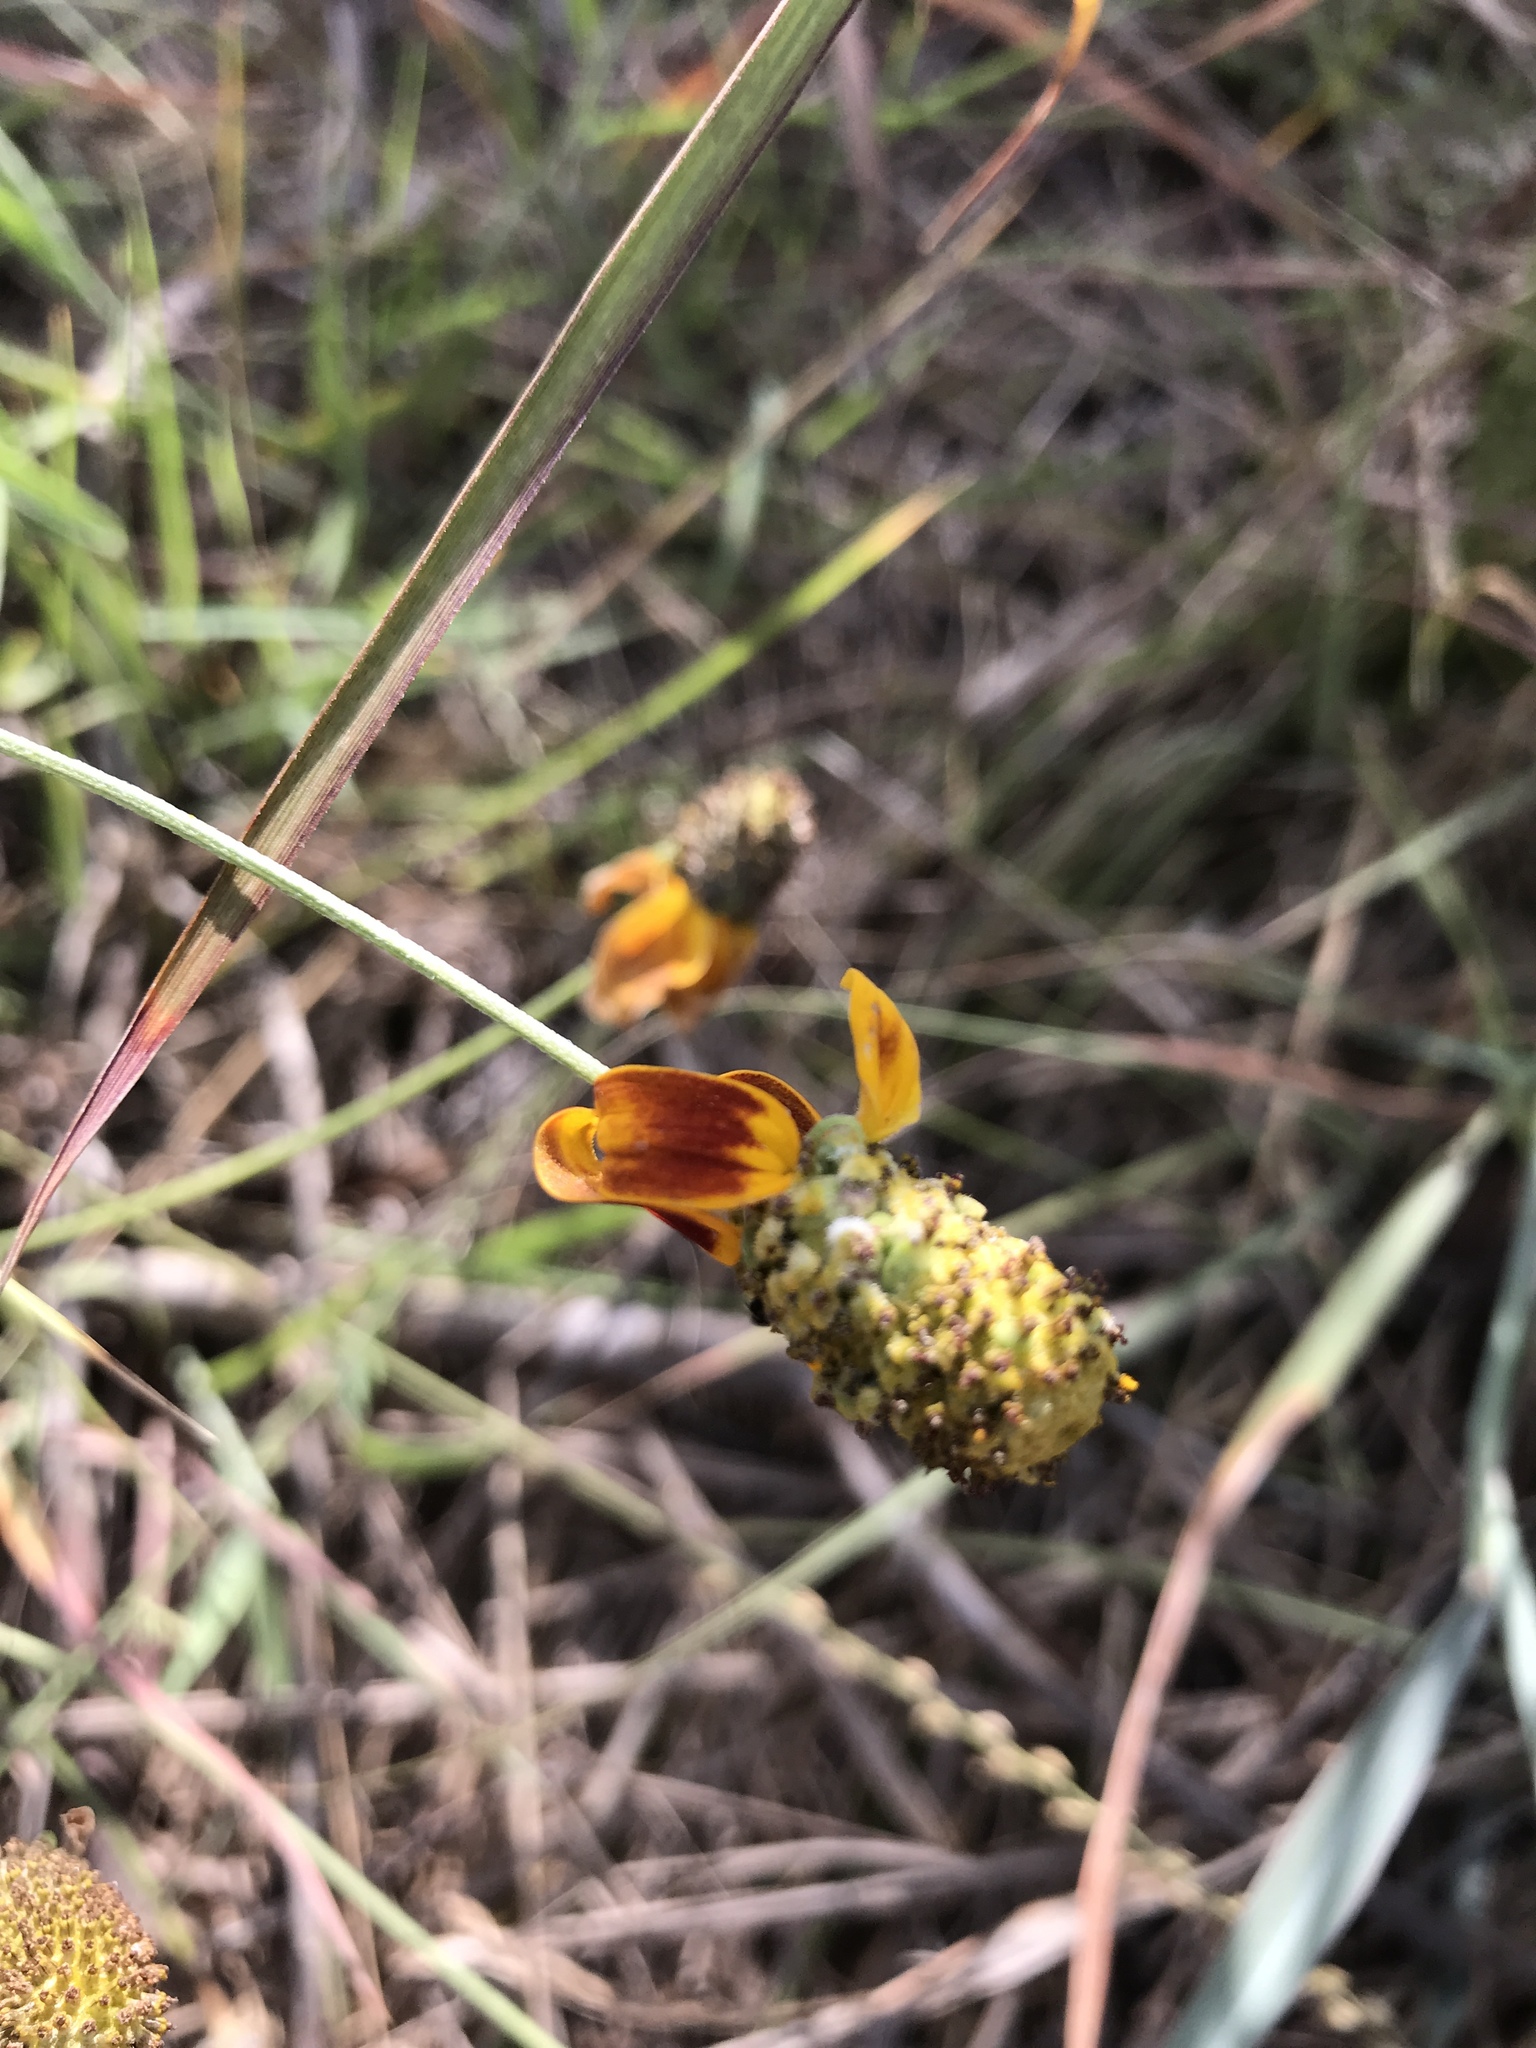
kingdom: Plantae
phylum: Tracheophyta
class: Magnoliopsida
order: Asterales
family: Asteraceae
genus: Ratibida
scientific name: Ratibida columnifera
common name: Prairie coneflower
